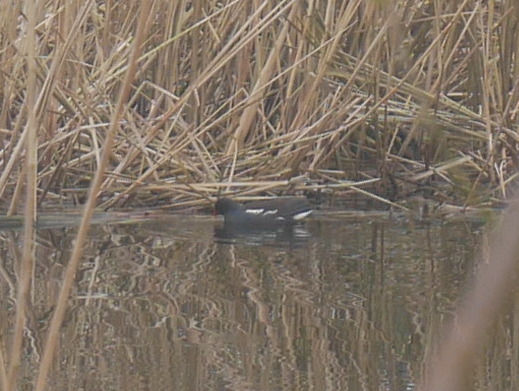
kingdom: Animalia
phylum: Chordata
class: Aves
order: Gruiformes
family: Rallidae
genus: Gallinula
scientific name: Gallinula chloropus
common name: Common moorhen
